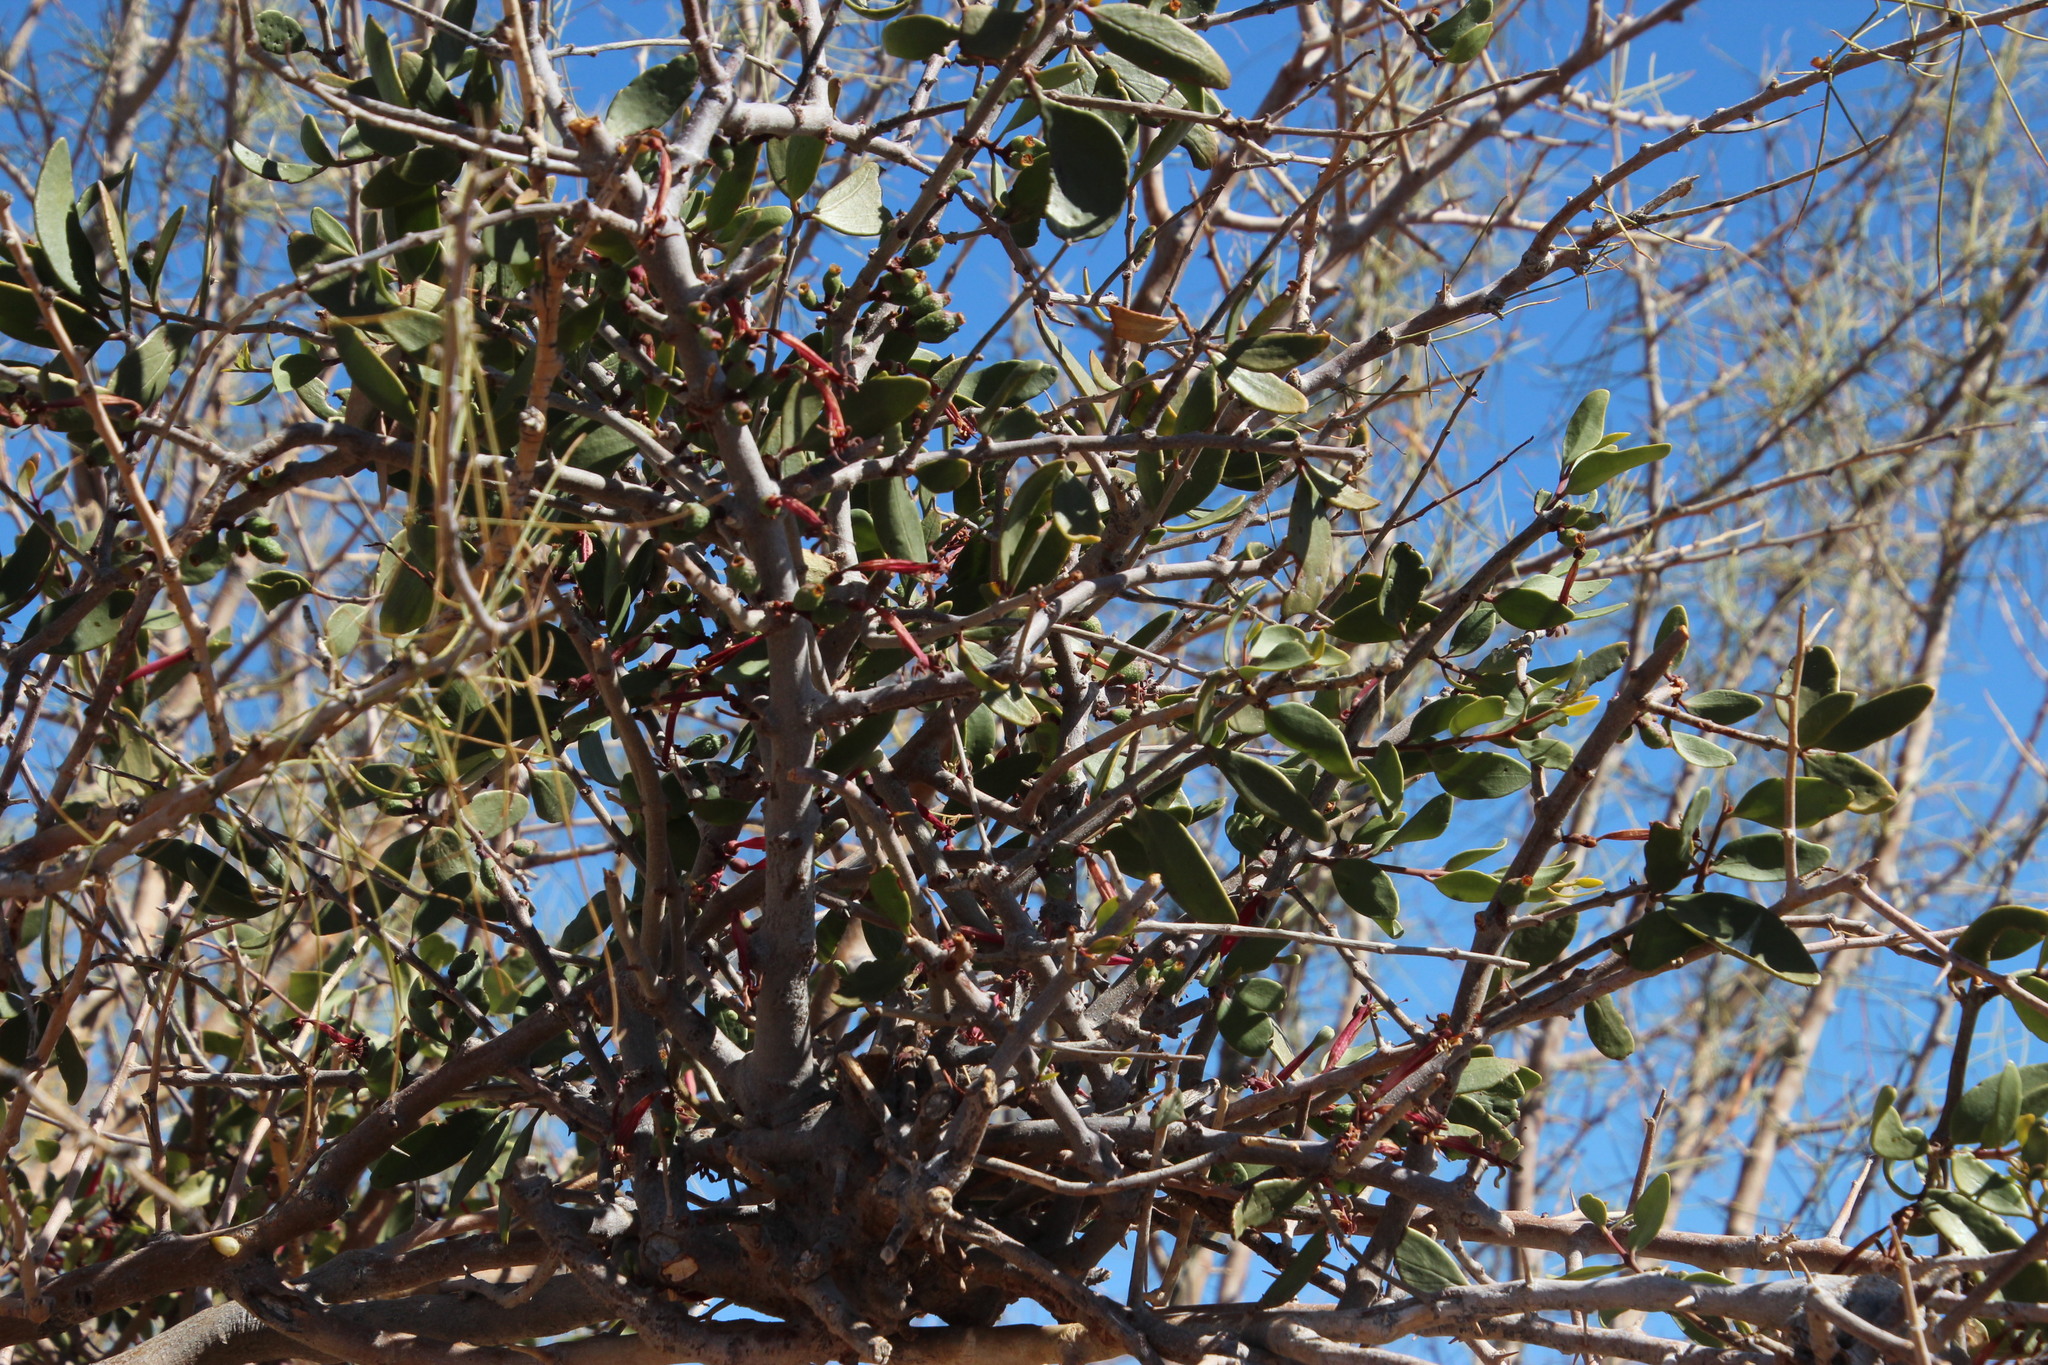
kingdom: Plantae
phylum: Tracheophyta
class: Magnoliopsida
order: Santalales
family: Loranthaceae
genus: Tapinanthus
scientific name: Tapinanthus oleifolius
